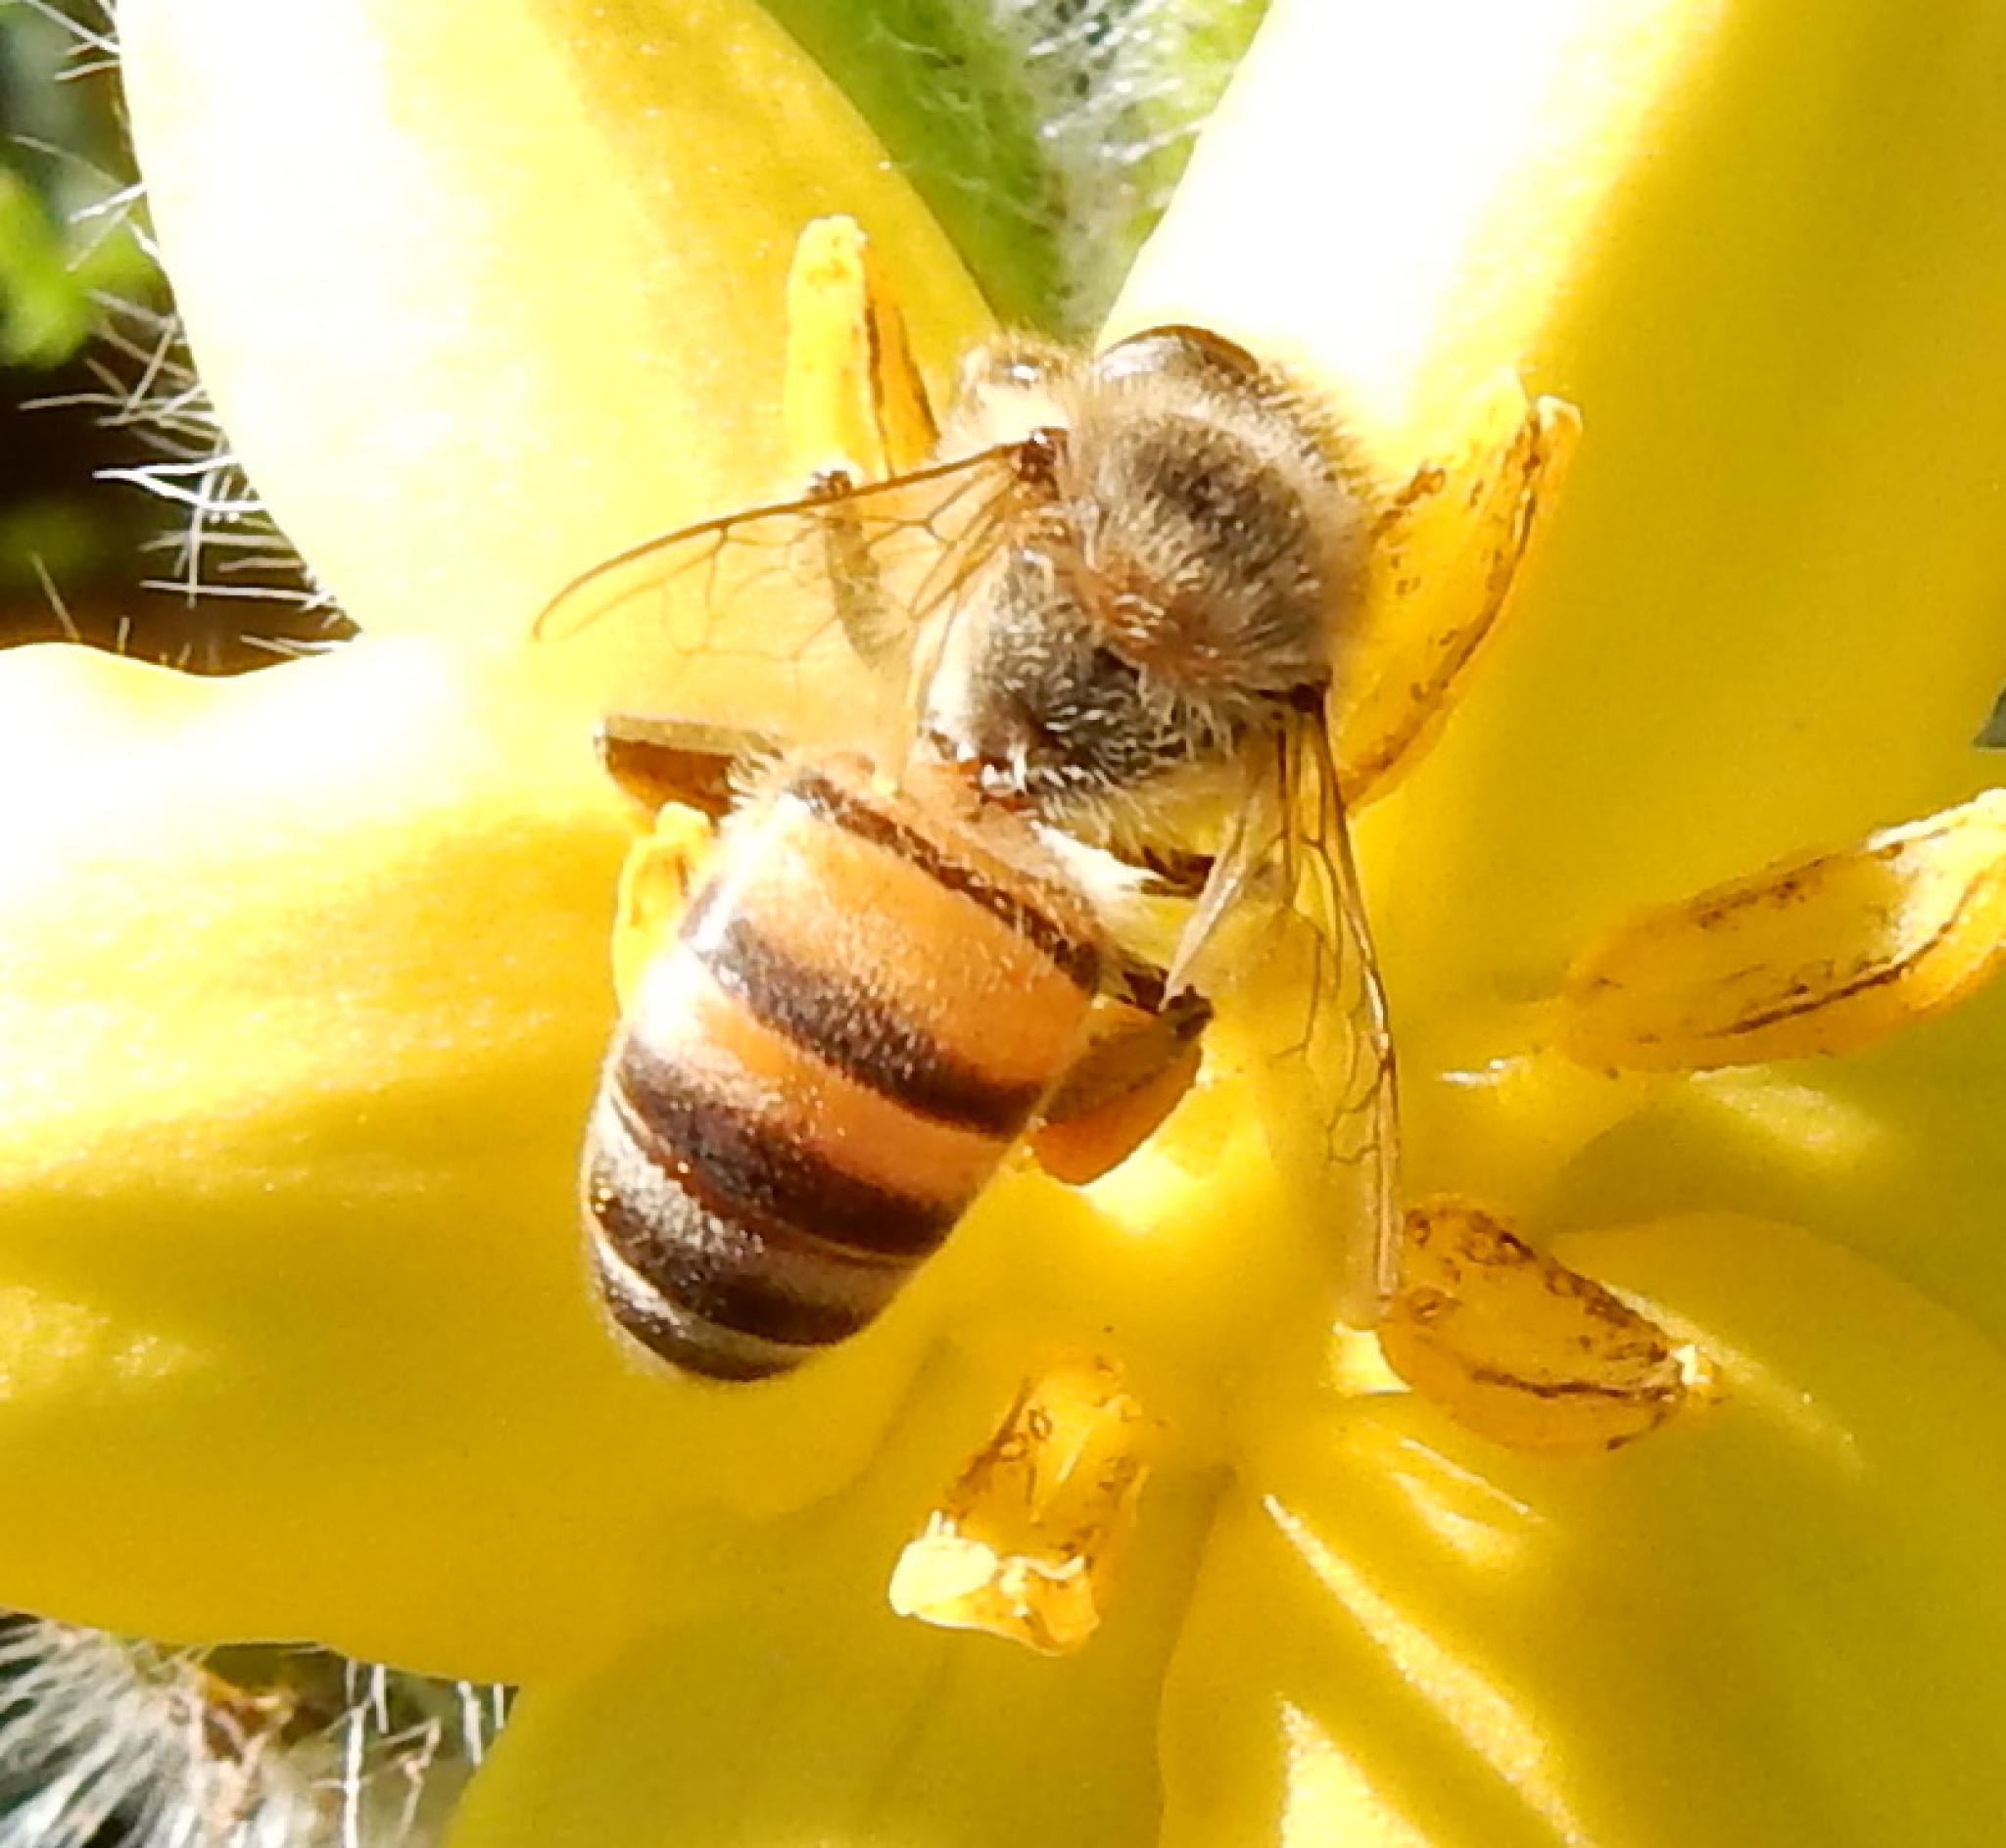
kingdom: Animalia
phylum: Arthropoda
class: Insecta
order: Hymenoptera
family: Apidae
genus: Apis
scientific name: Apis mellifera
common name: Honey bee
